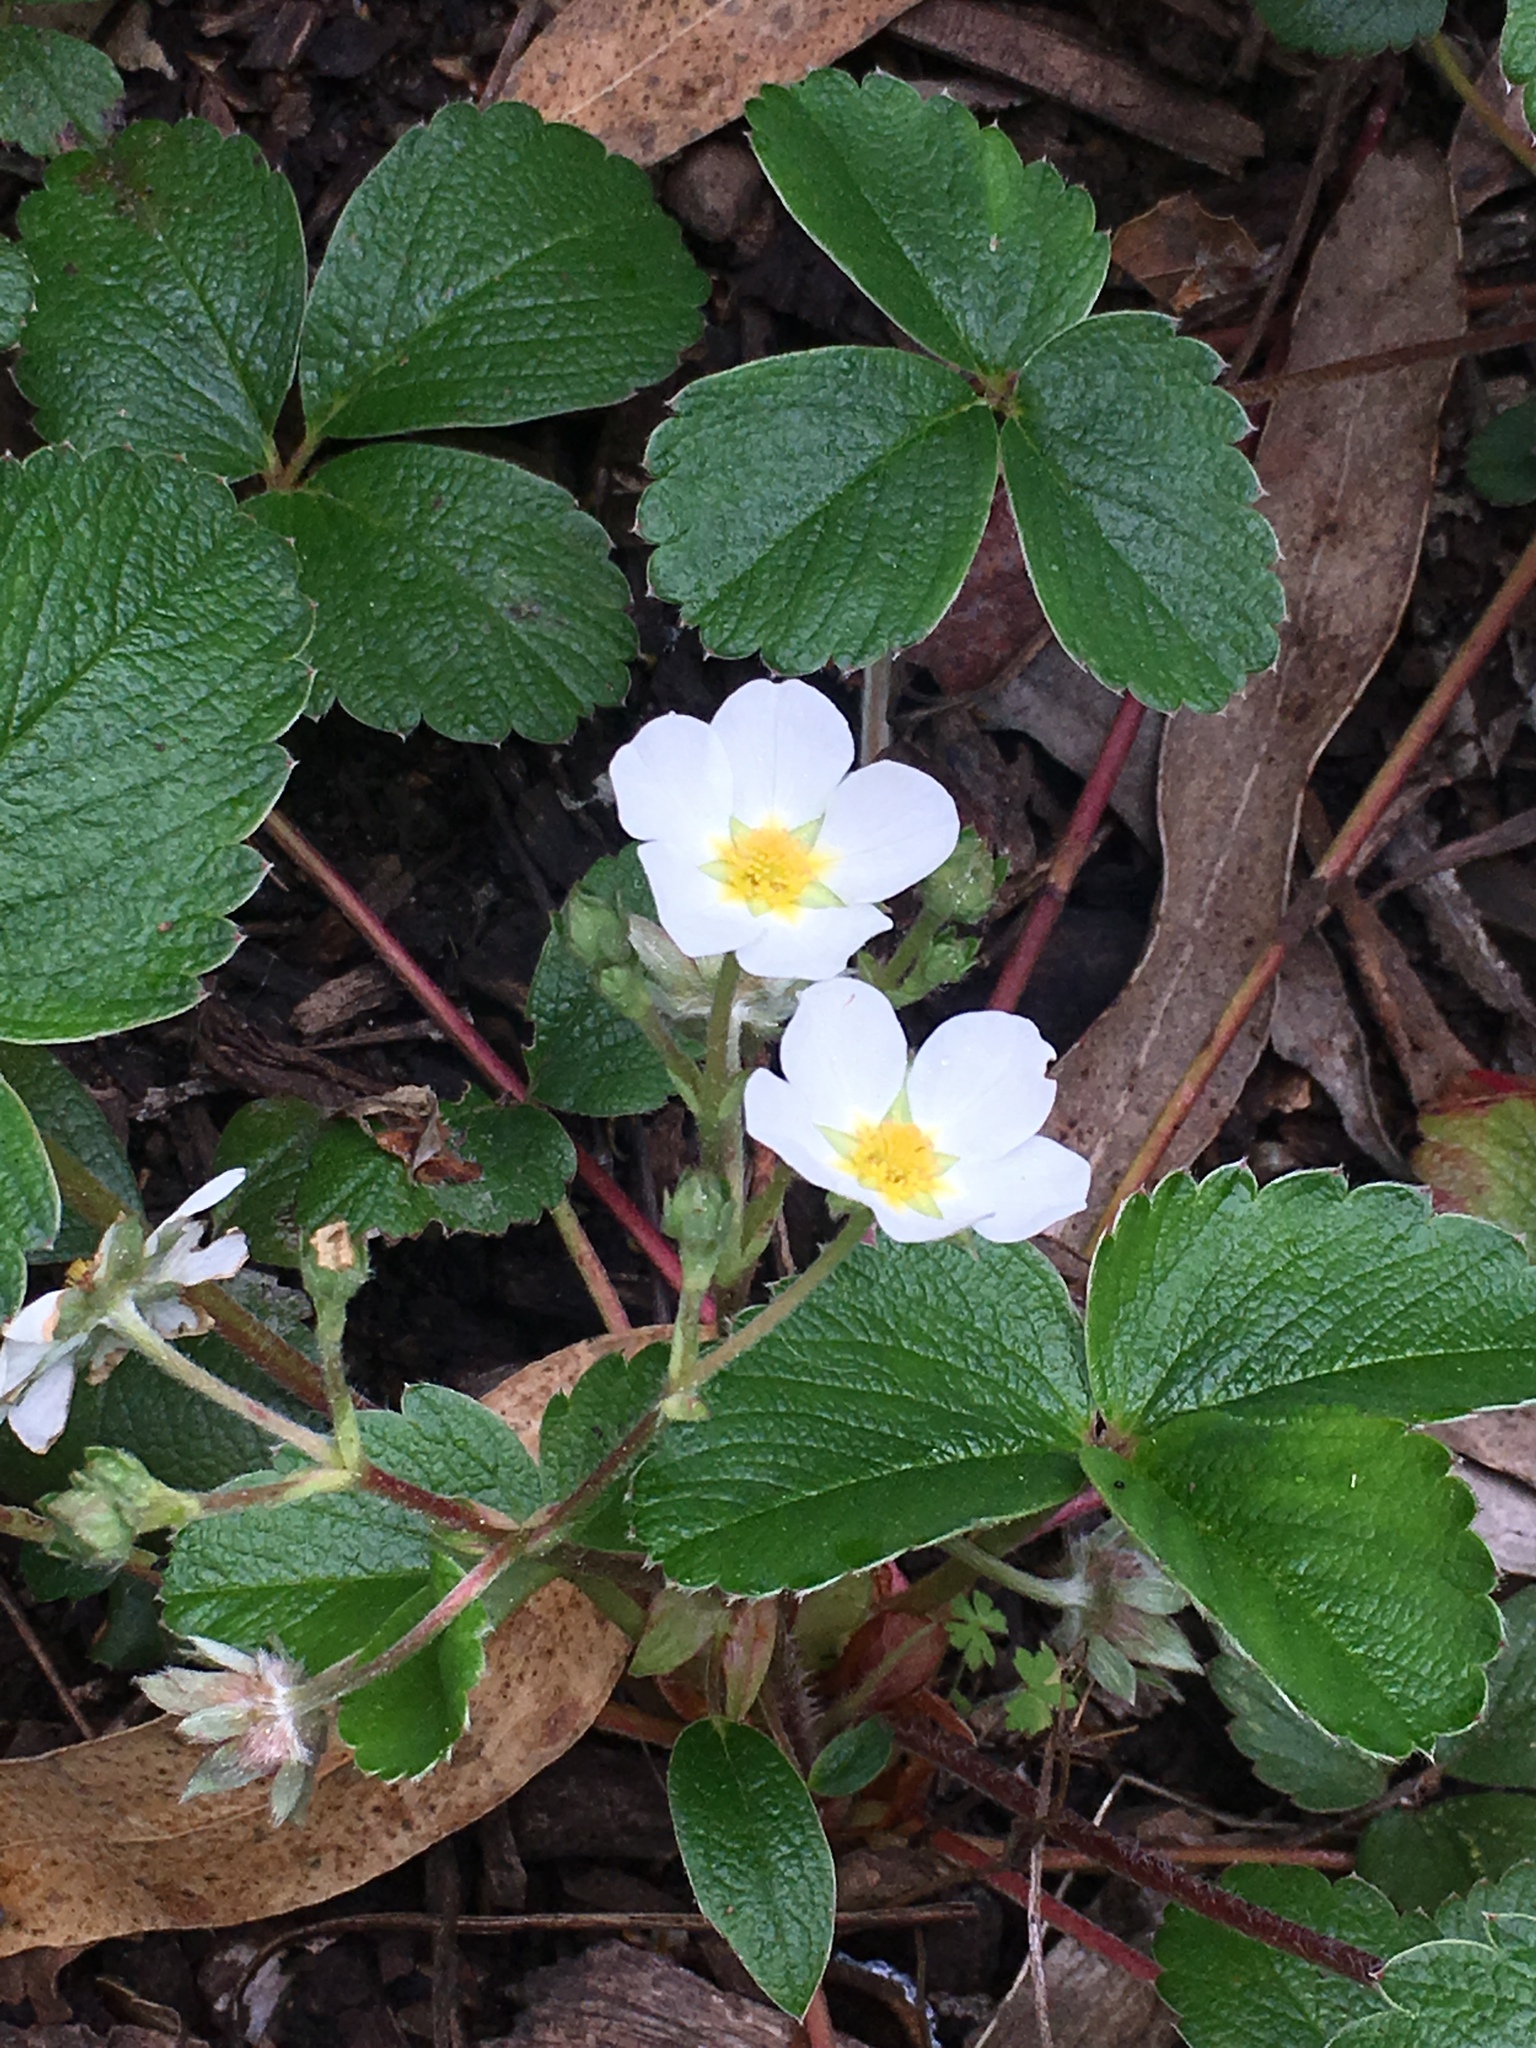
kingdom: Plantae
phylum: Tracheophyta
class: Magnoliopsida
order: Rosales
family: Rosaceae
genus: Fragaria
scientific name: Fragaria chiloensis
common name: Beach strawberry
